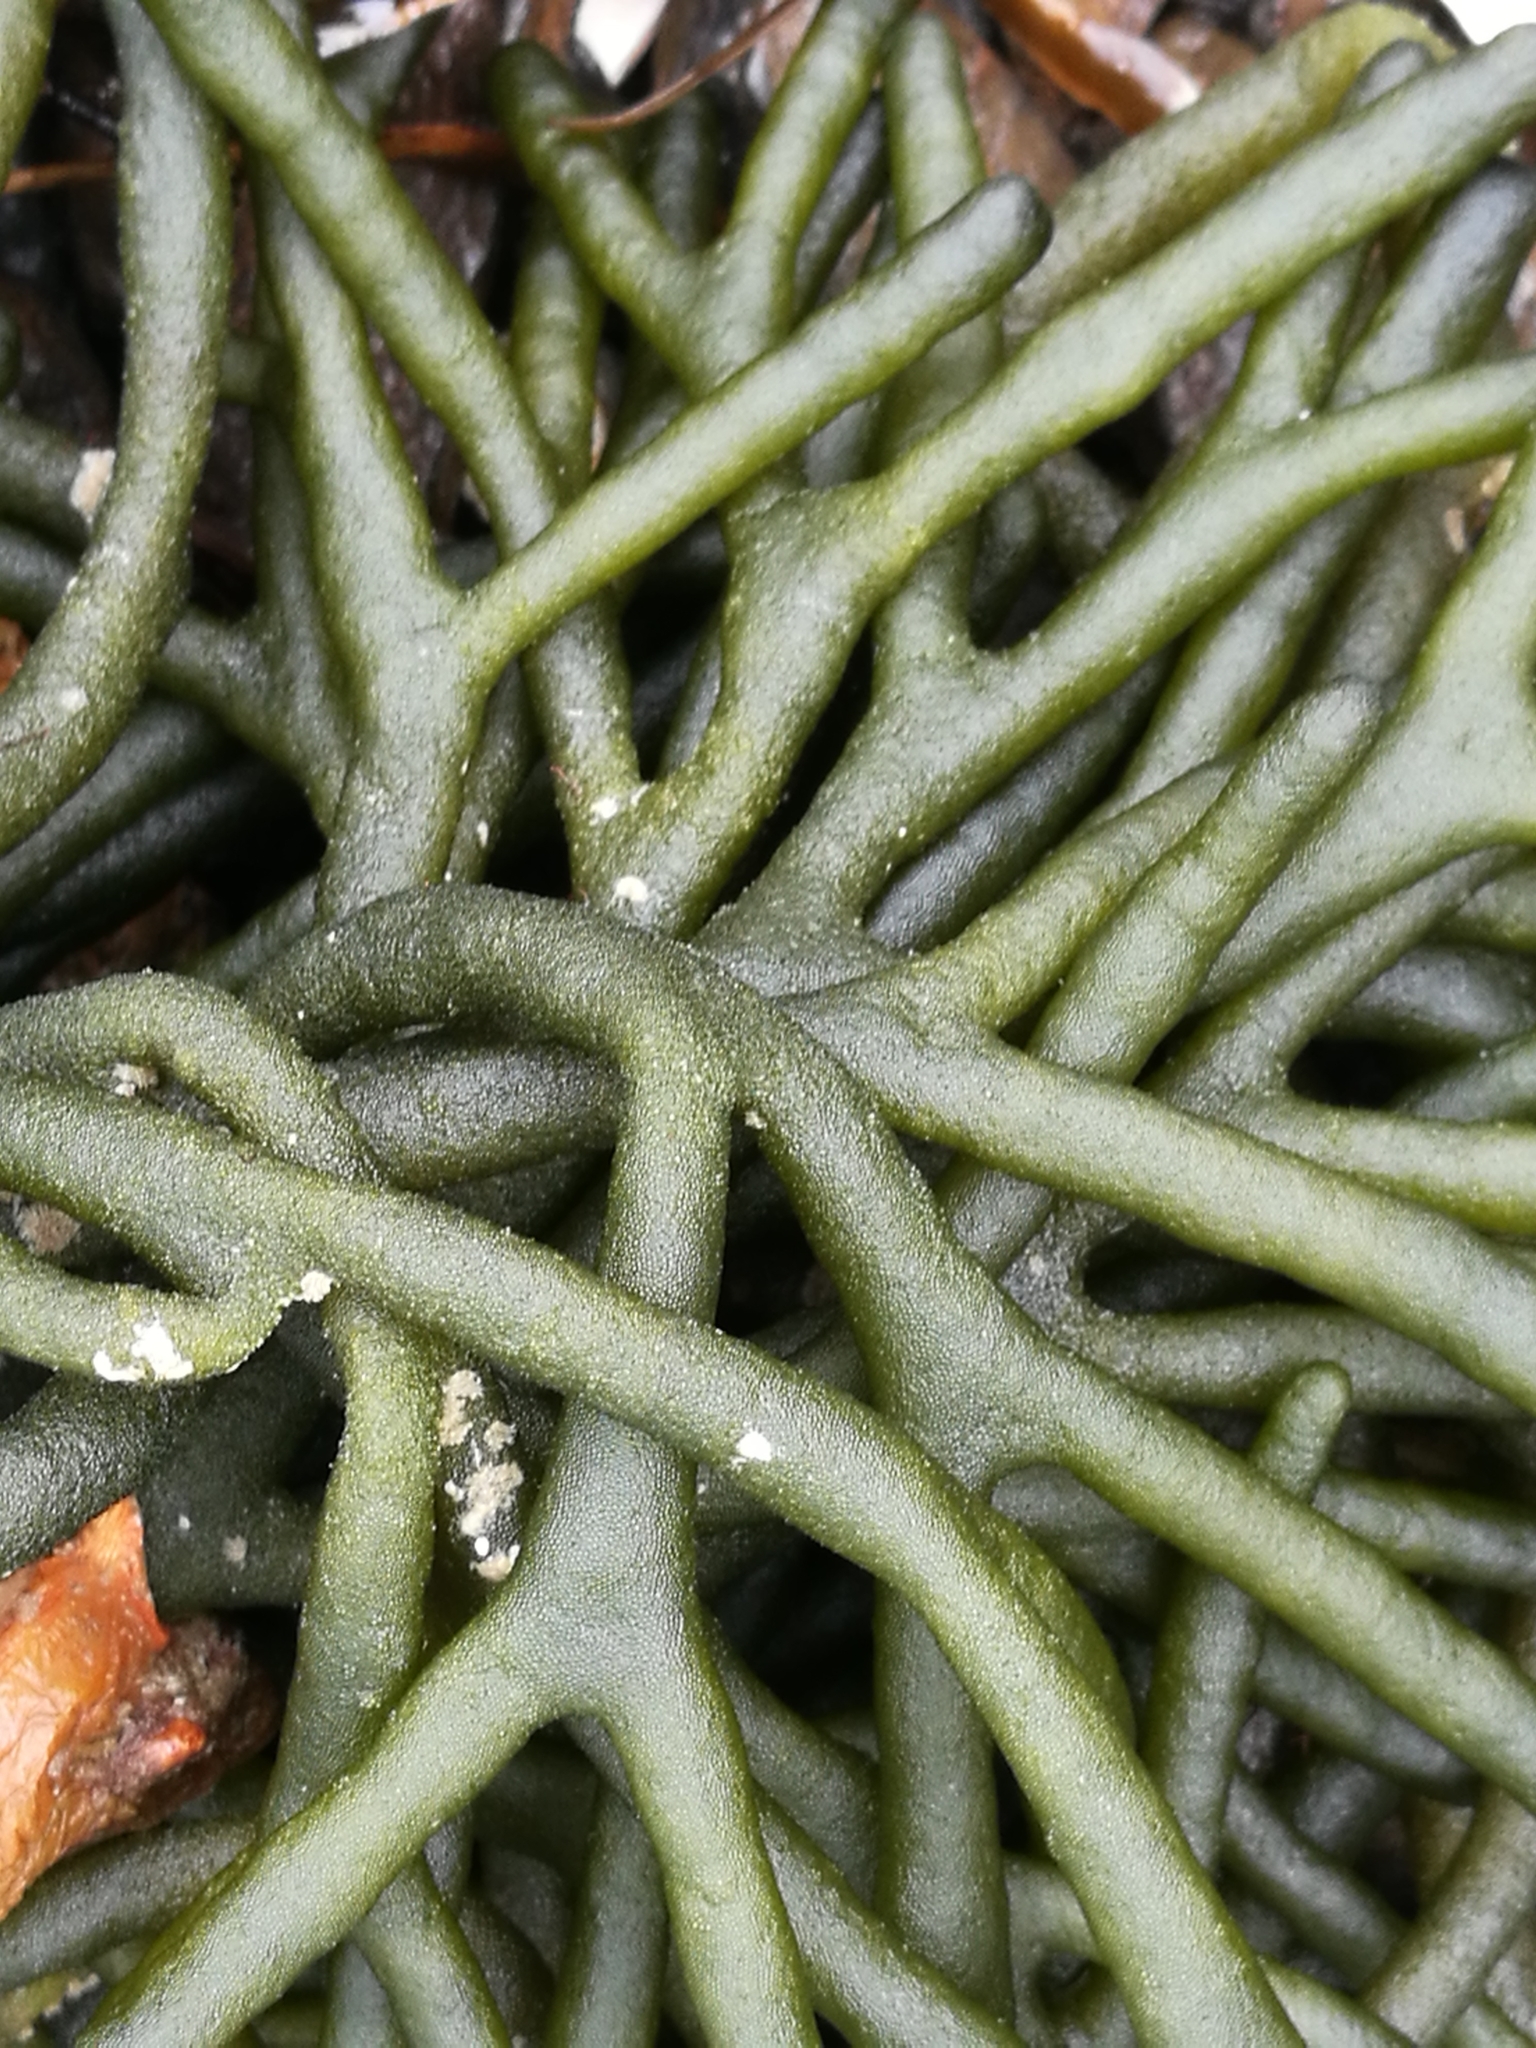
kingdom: Plantae
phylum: Chlorophyta
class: Ulvophyceae
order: Bryopsidales
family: Codiaceae
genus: Codium
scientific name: Codium fragile
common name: Dead man's fingers
